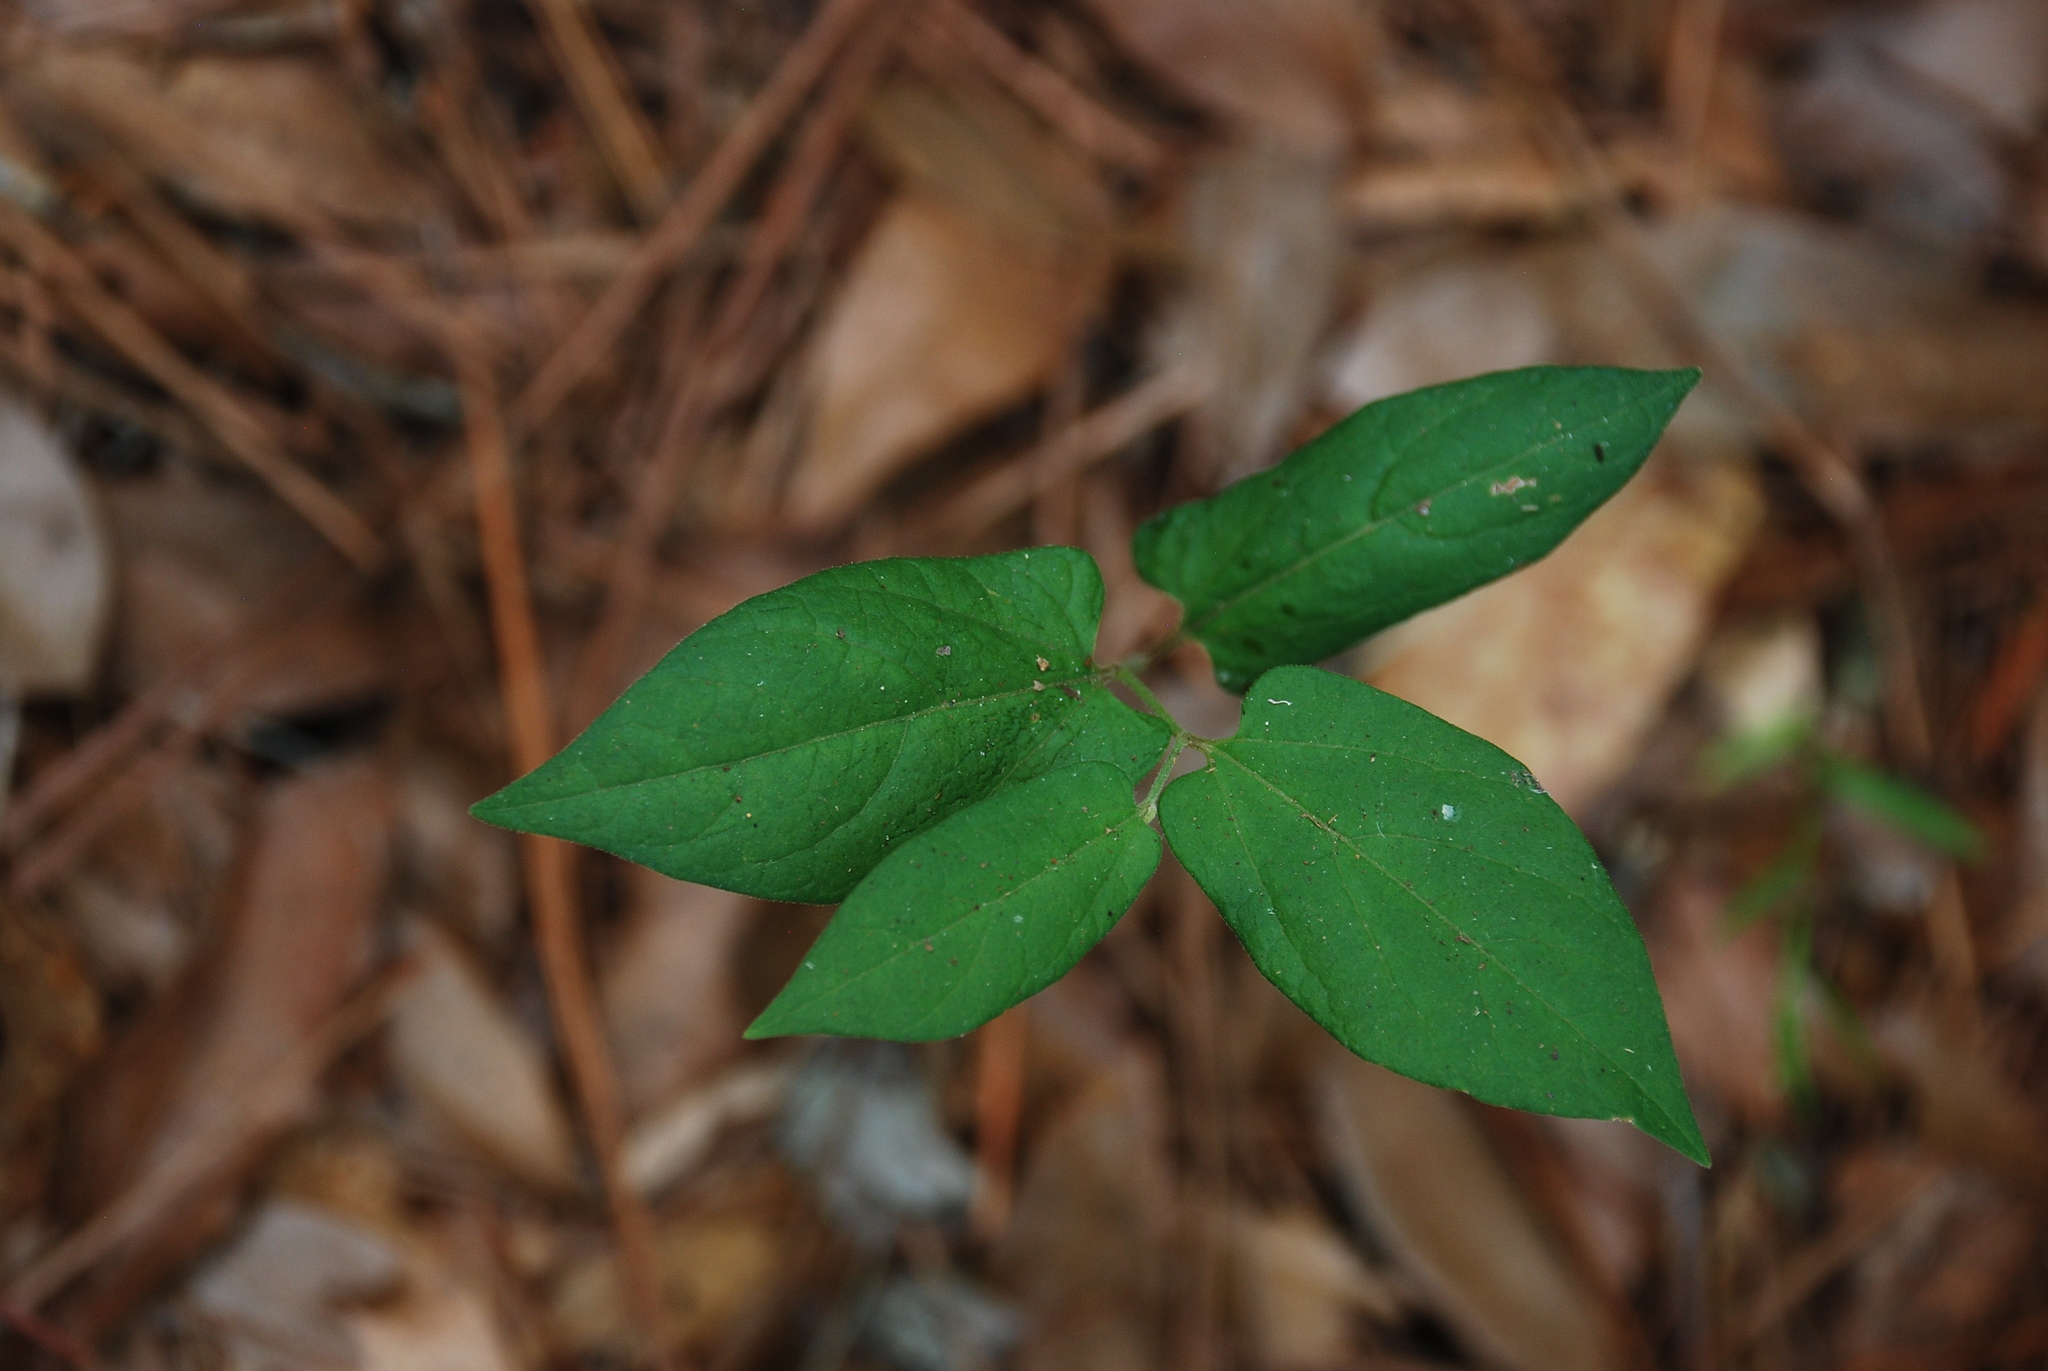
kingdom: Plantae
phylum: Tracheophyta
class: Magnoliopsida
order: Piperales
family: Aristolochiaceae
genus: Endodeca
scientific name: Endodeca serpentaria
